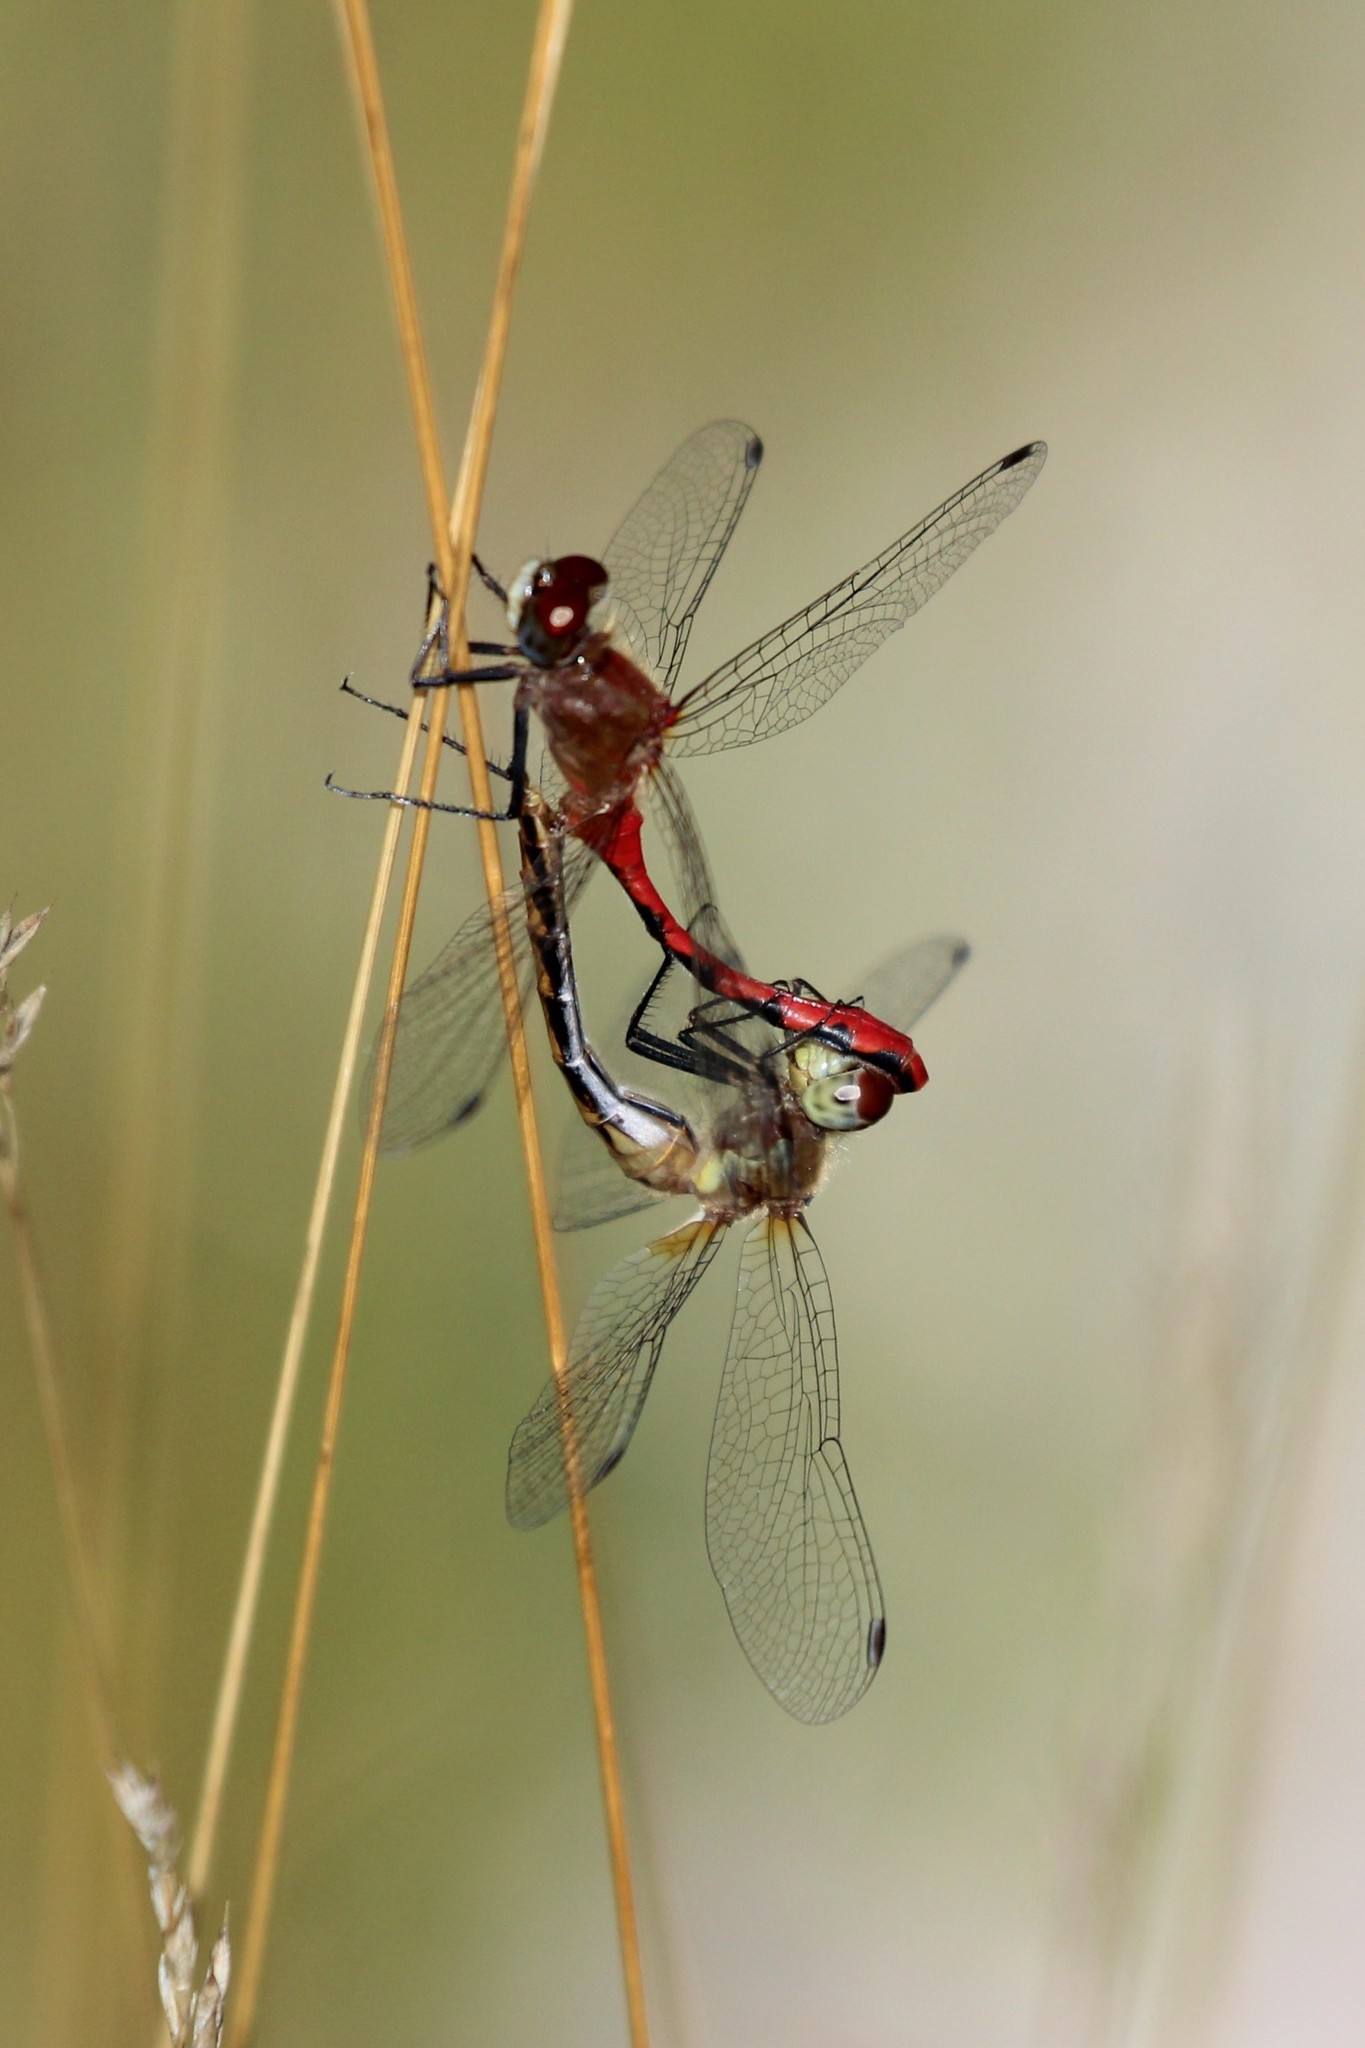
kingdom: Animalia
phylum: Arthropoda
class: Insecta
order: Odonata
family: Libellulidae
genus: Sympetrum
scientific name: Sympetrum obtrusum
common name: White-faced meadowhawk
